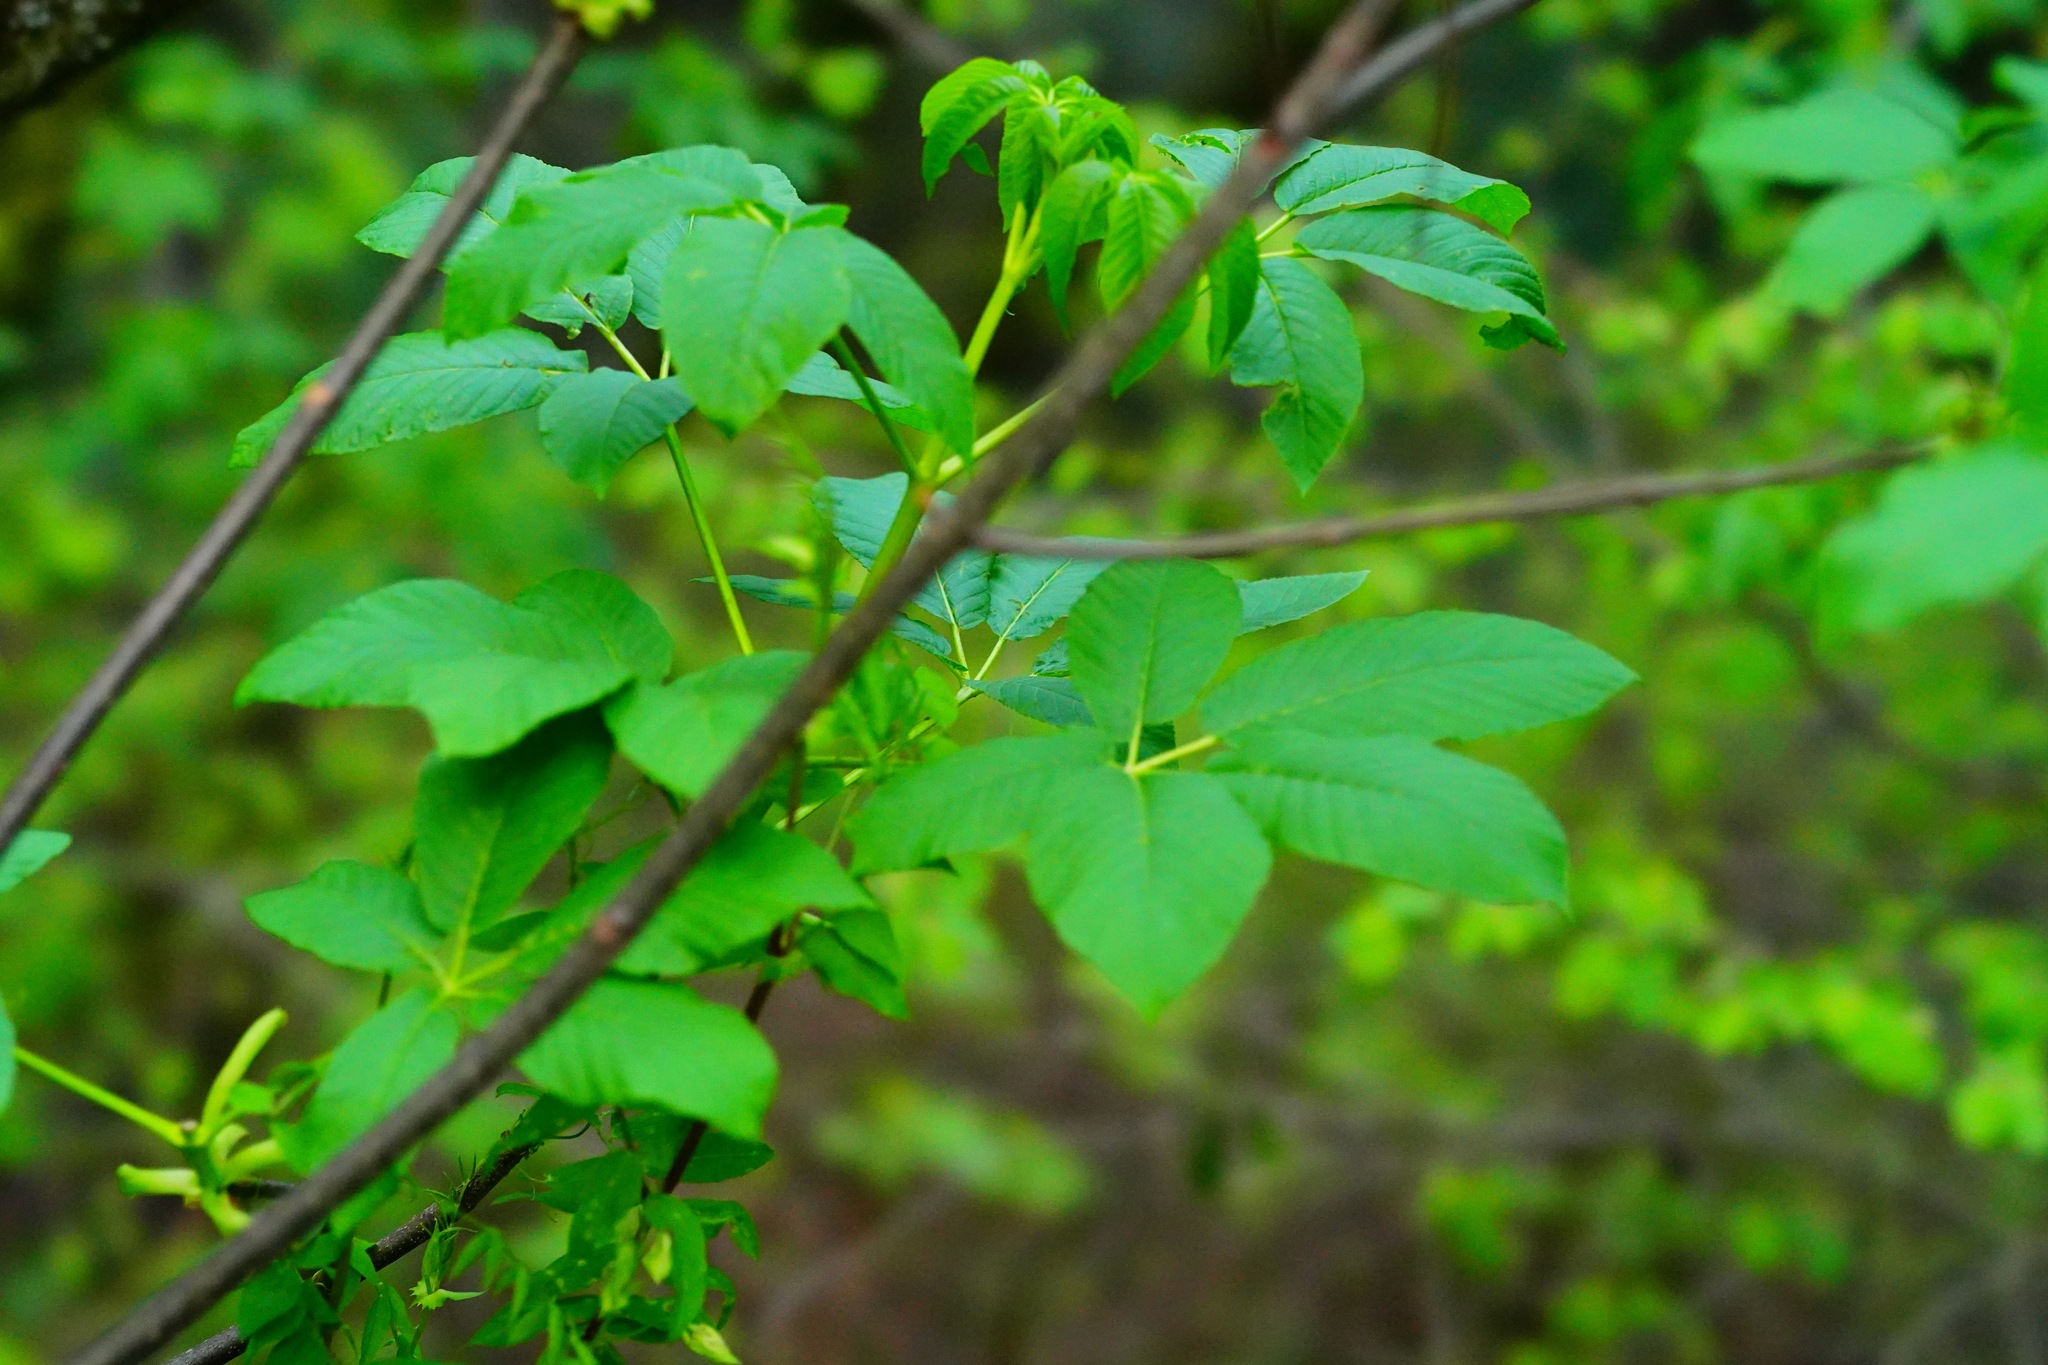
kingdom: Plantae
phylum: Tracheophyta
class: Magnoliopsida
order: Sapindales
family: Sapindaceae
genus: Aesculus
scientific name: Aesculus californica
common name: California buckeye
